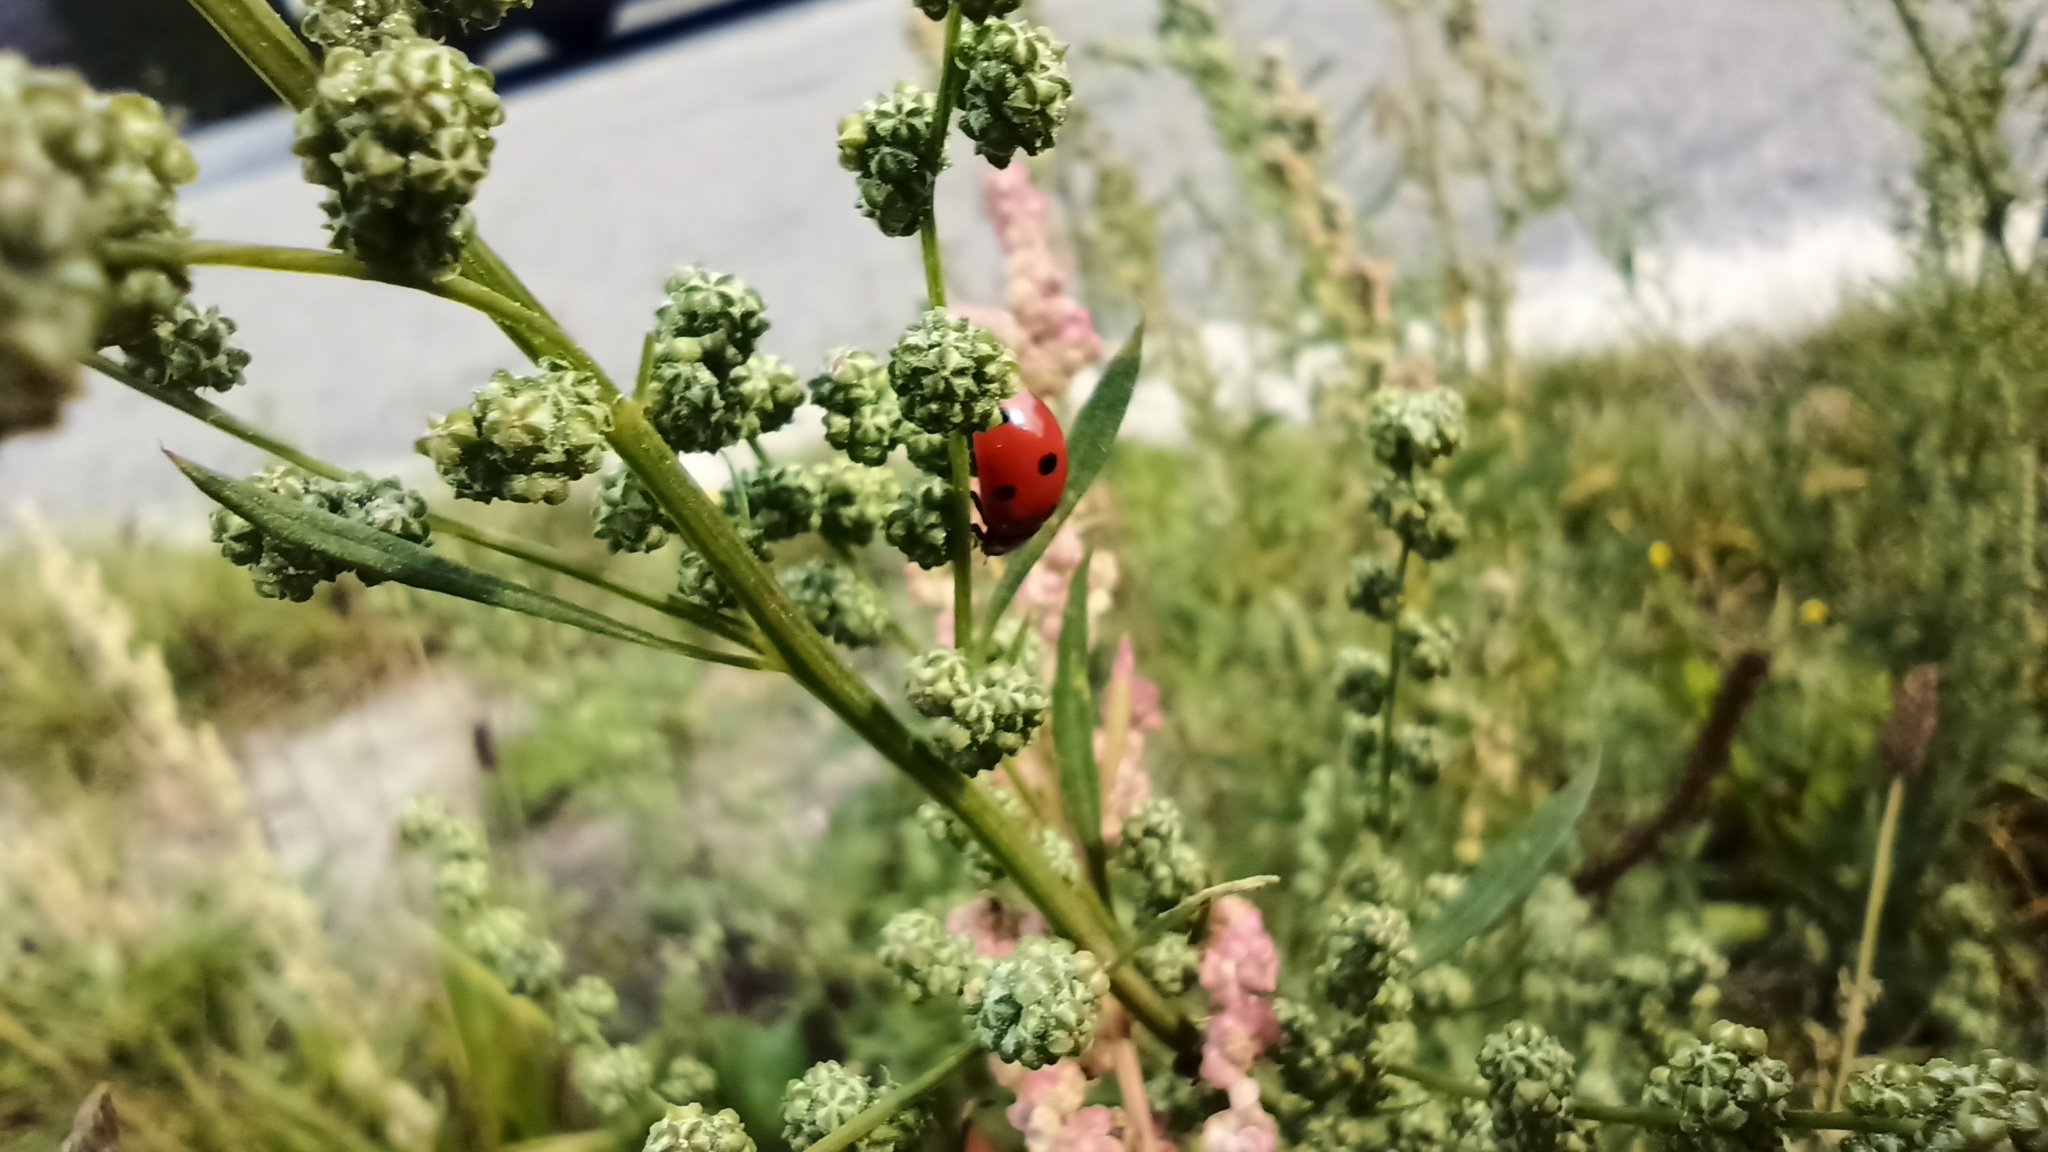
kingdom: Animalia
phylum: Arthropoda
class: Insecta
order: Coleoptera
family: Coccinellidae
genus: Coccinella
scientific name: Coccinella septempunctata
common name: Sevenspotted lady beetle
